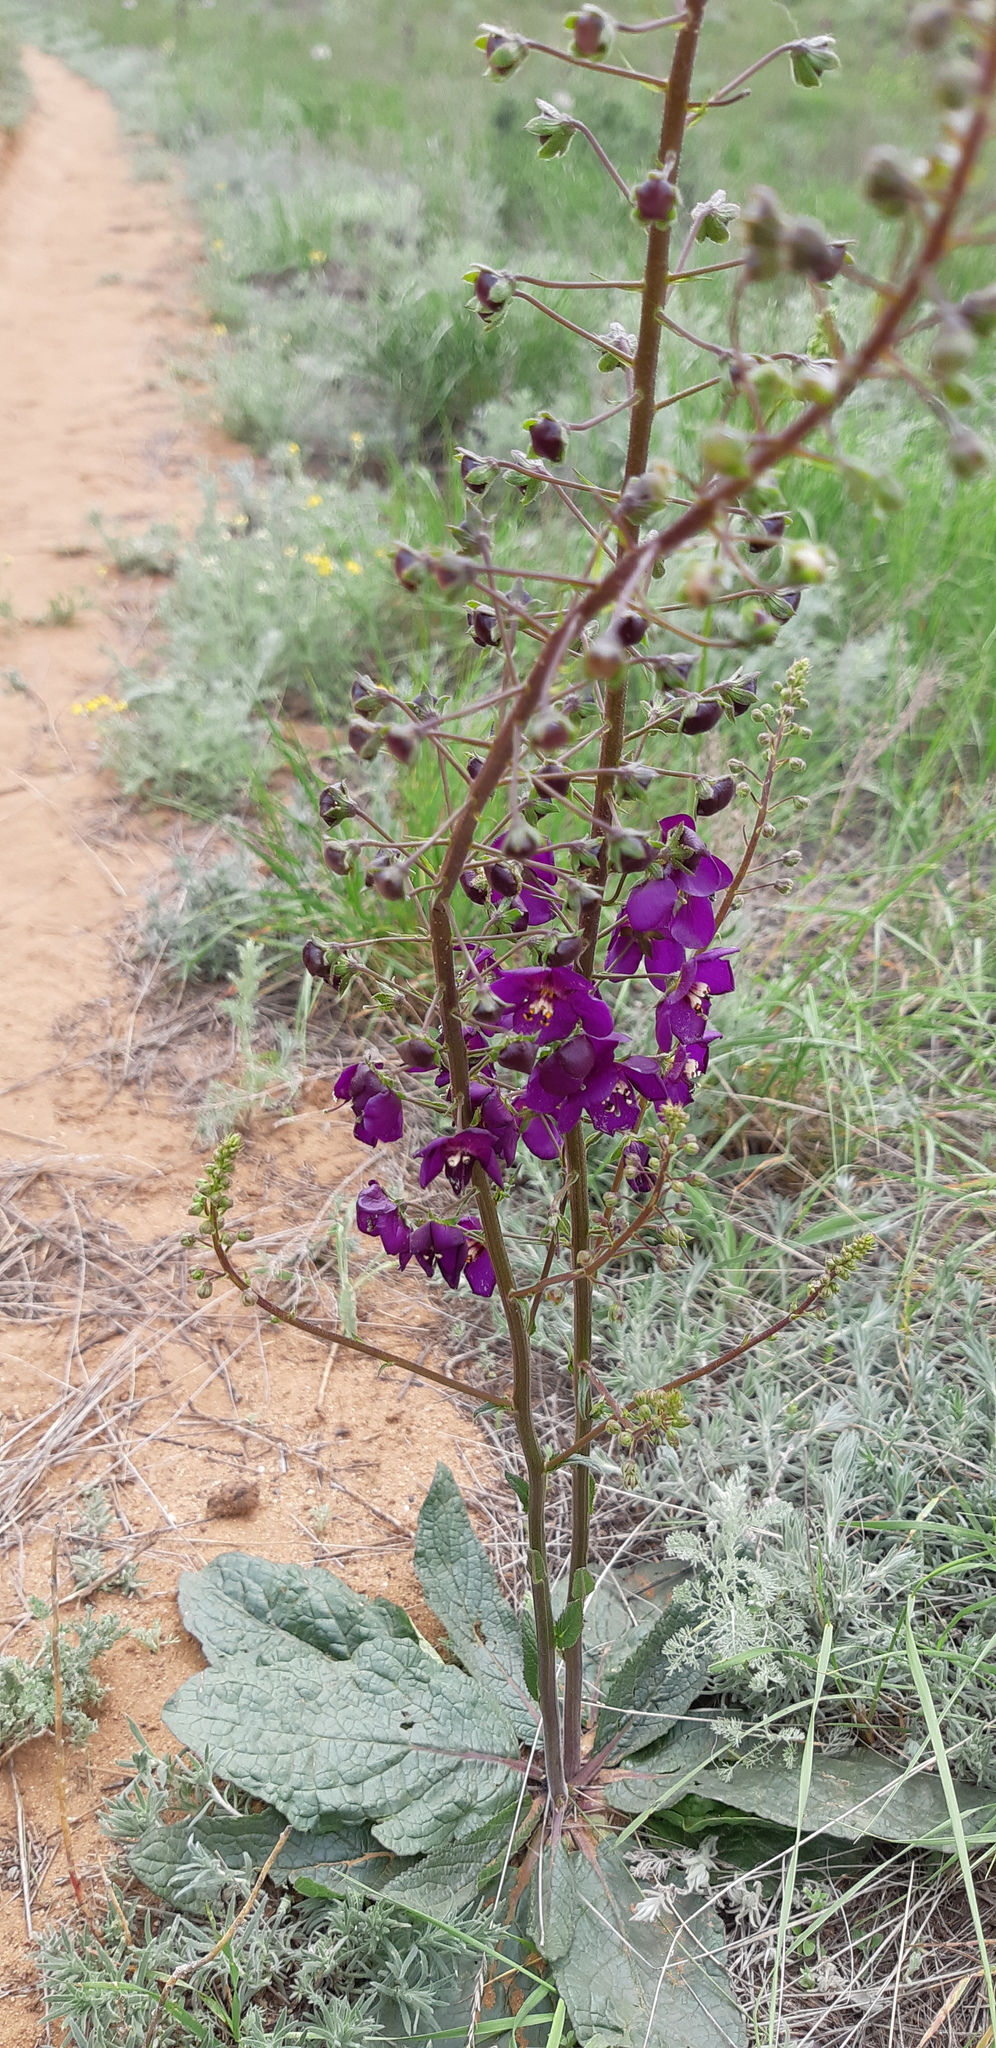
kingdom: Plantae
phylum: Tracheophyta
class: Magnoliopsida
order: Lamiales
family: Scrophulariaceae
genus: Verbascum
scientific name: Verbascum phoeniceum
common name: Purple mullein
